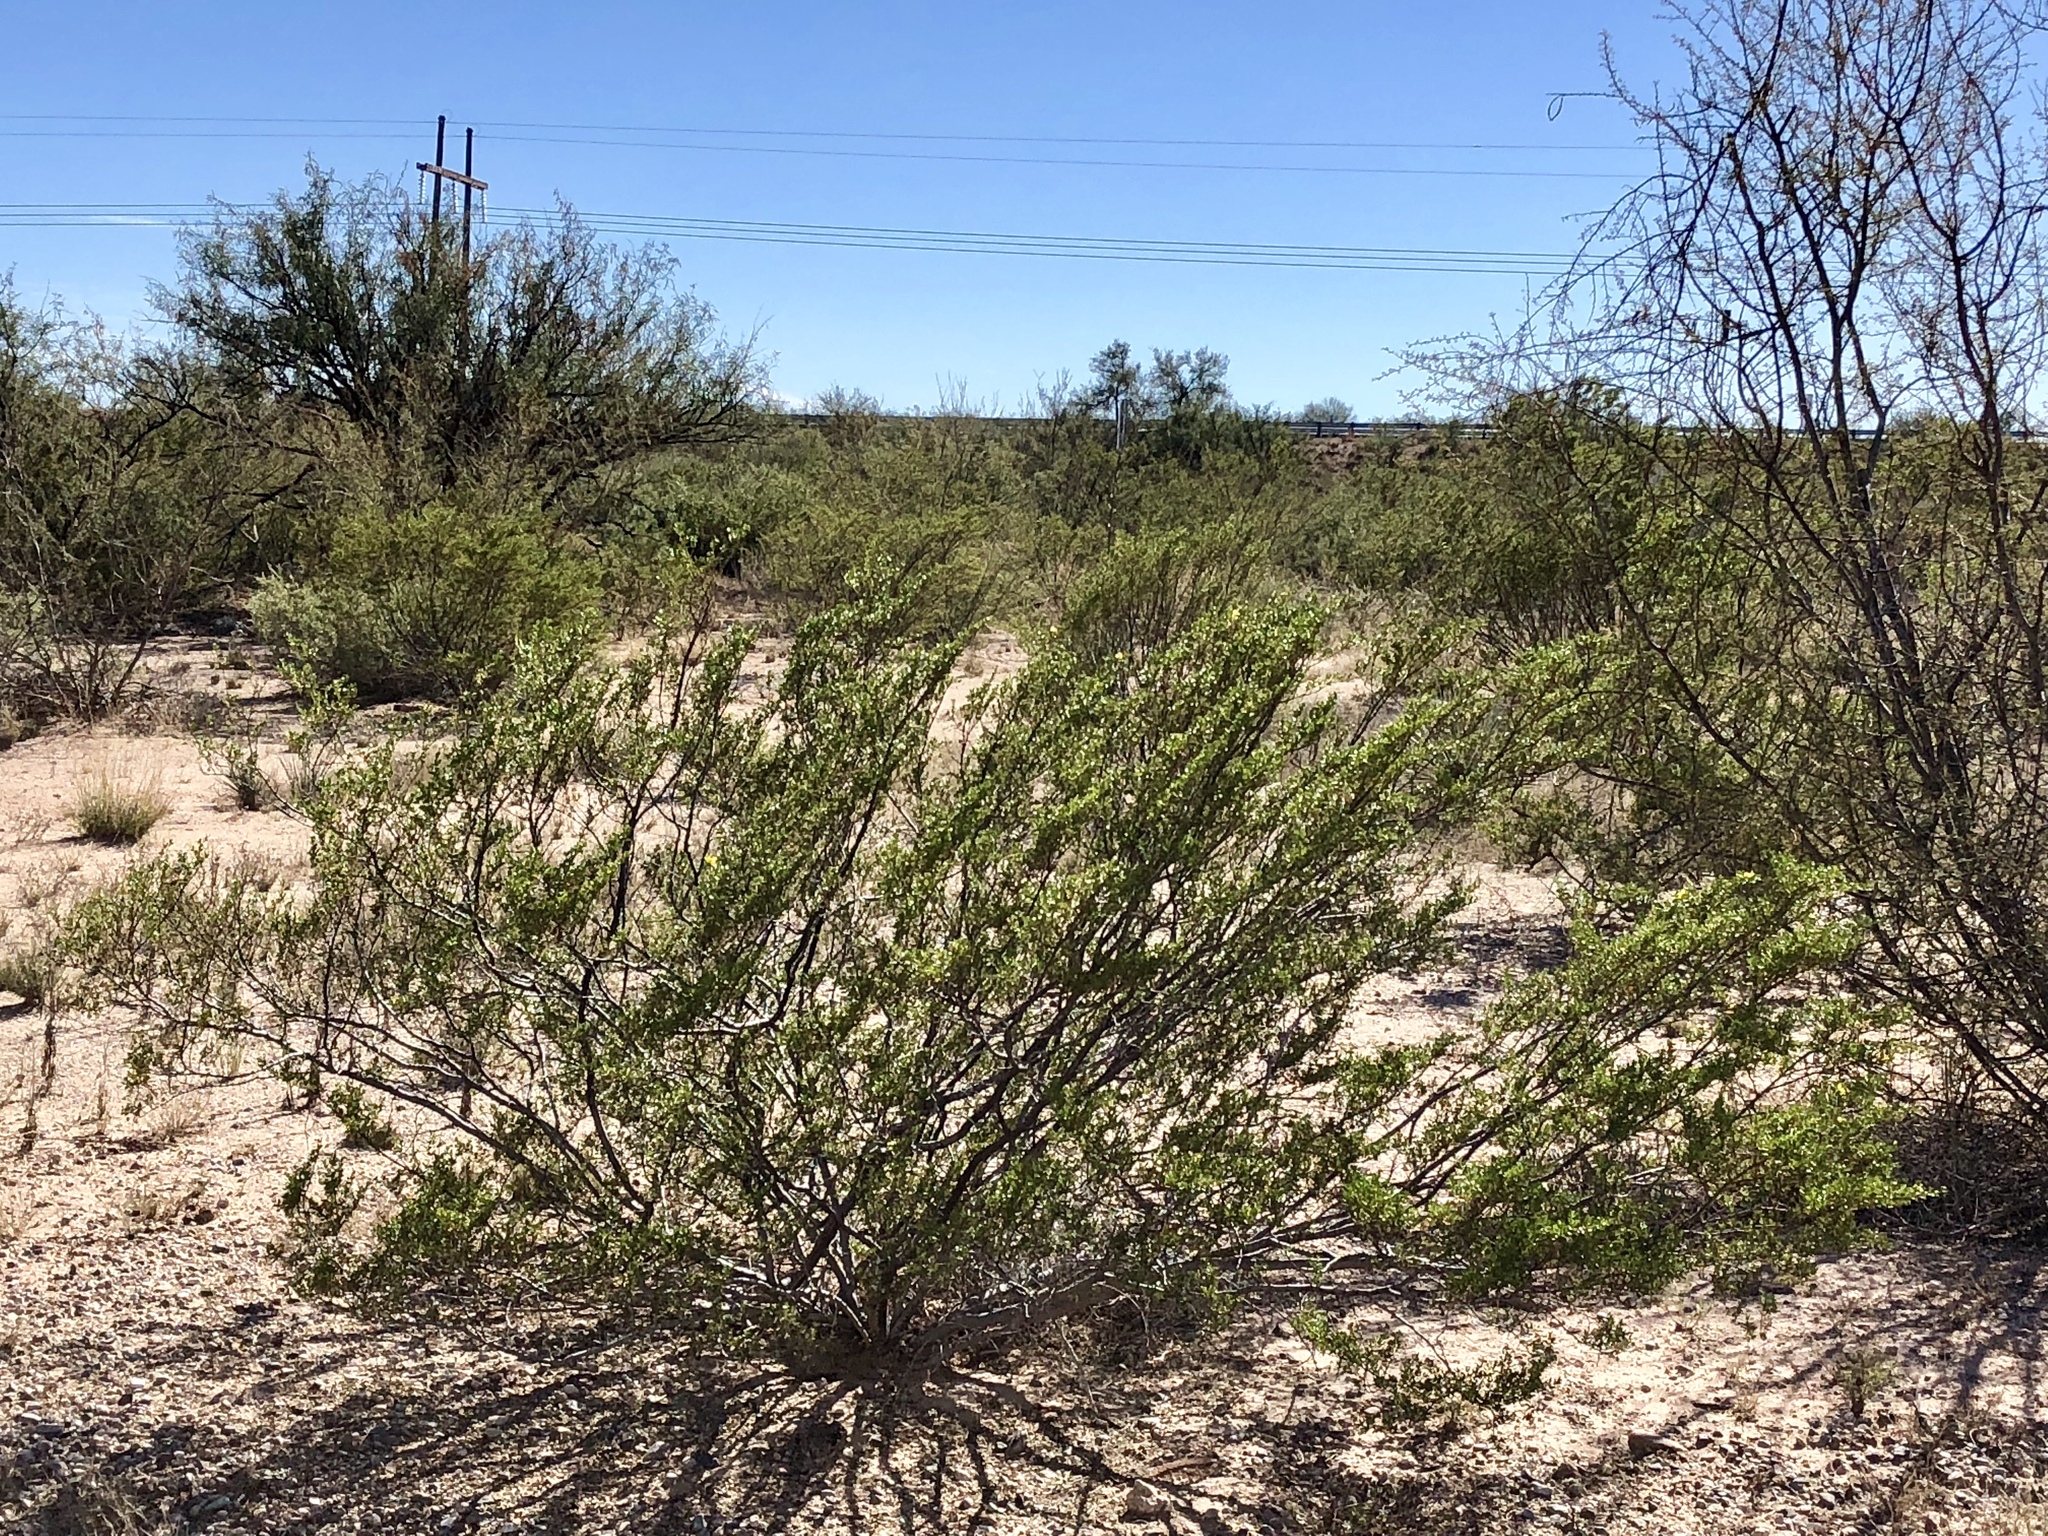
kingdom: Plantae
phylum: Tracheophyta
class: Magnoliopsida
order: Zygophyllales
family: Zygophyllaceae
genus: Larrea
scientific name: Larrea tridentata
